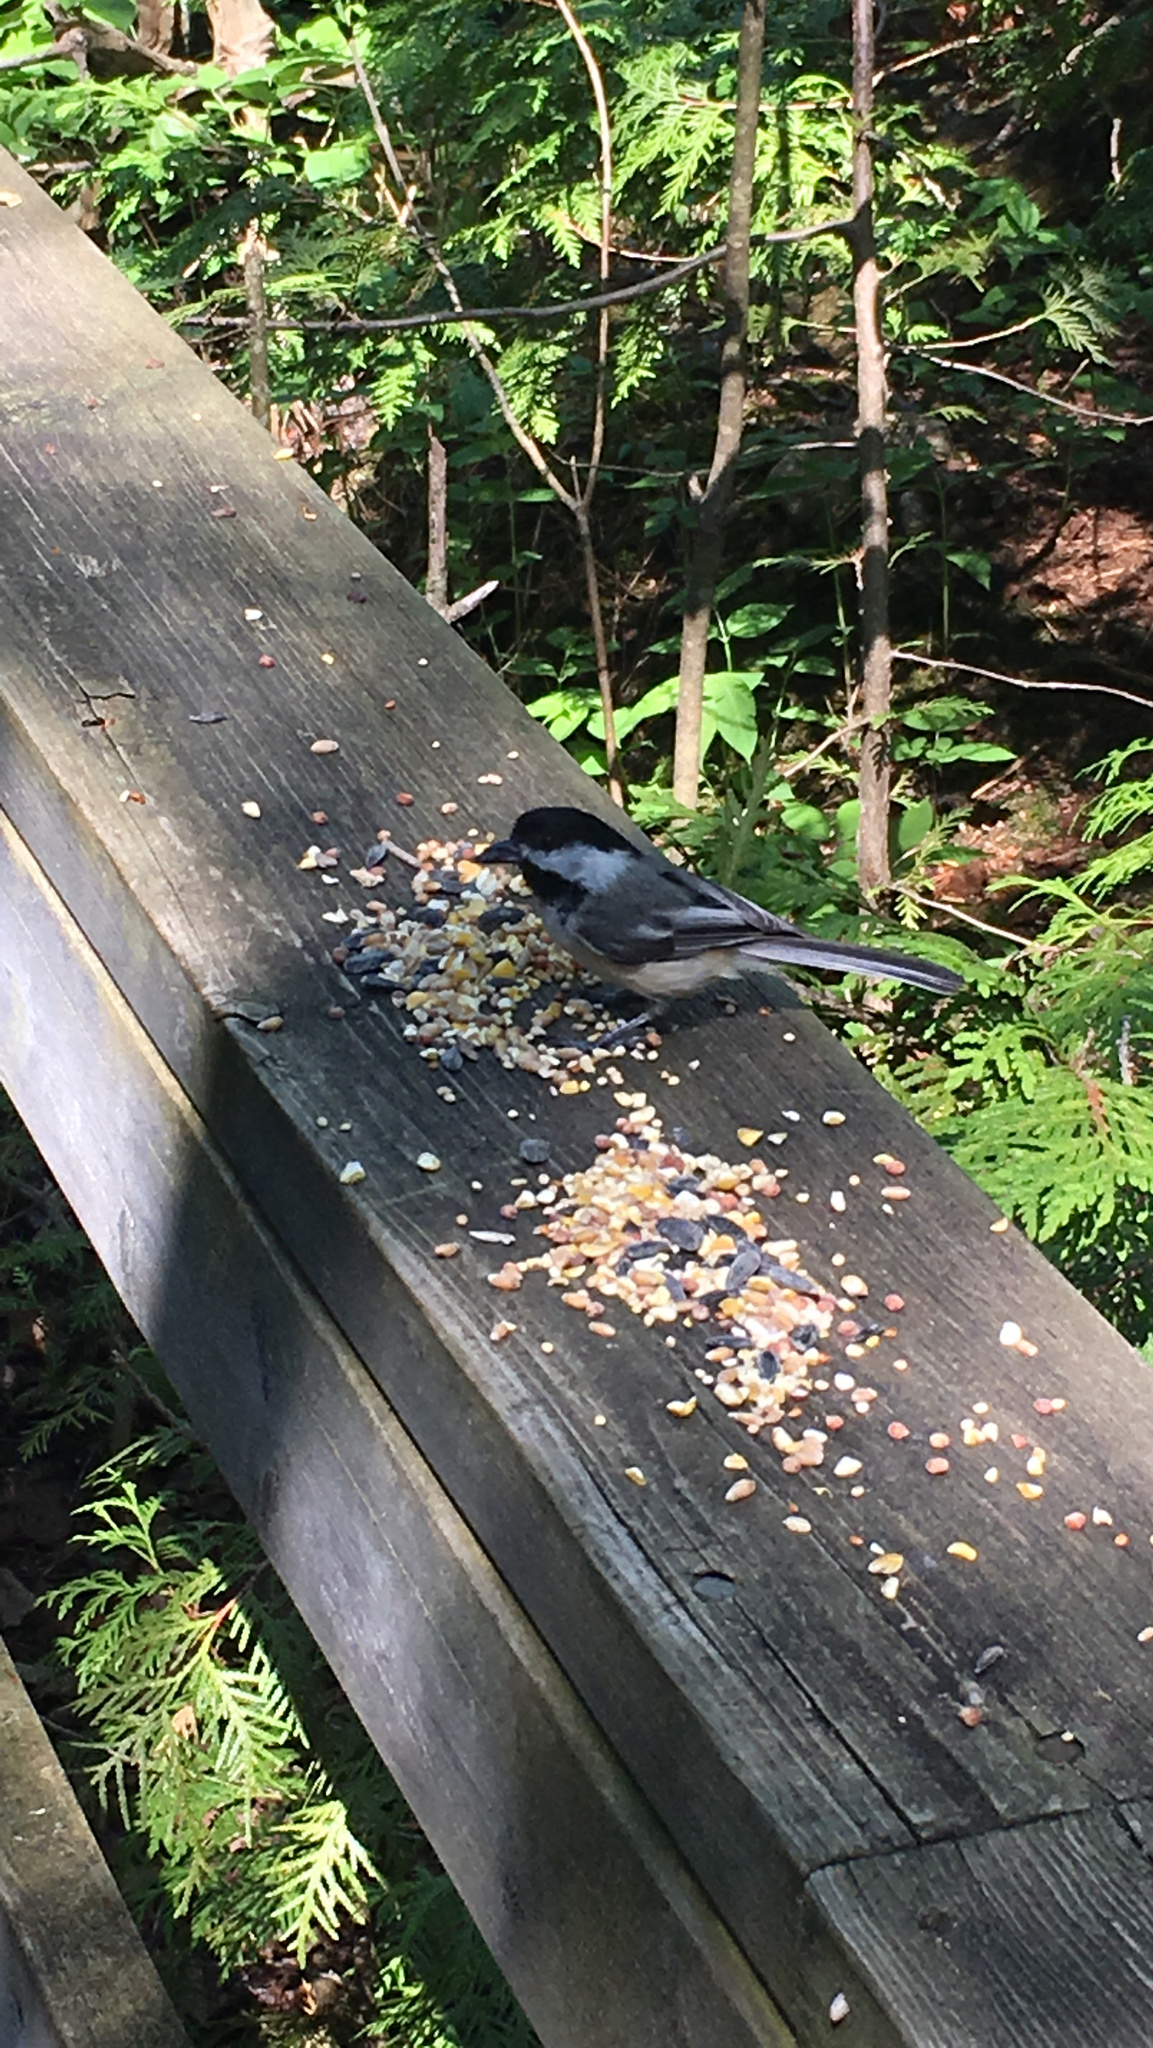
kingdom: Animalia
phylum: Chordata
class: Aves
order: Passeriformes
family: Paridae
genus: Poecile
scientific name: Poecile atricapillus
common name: Black-capped chickadee
